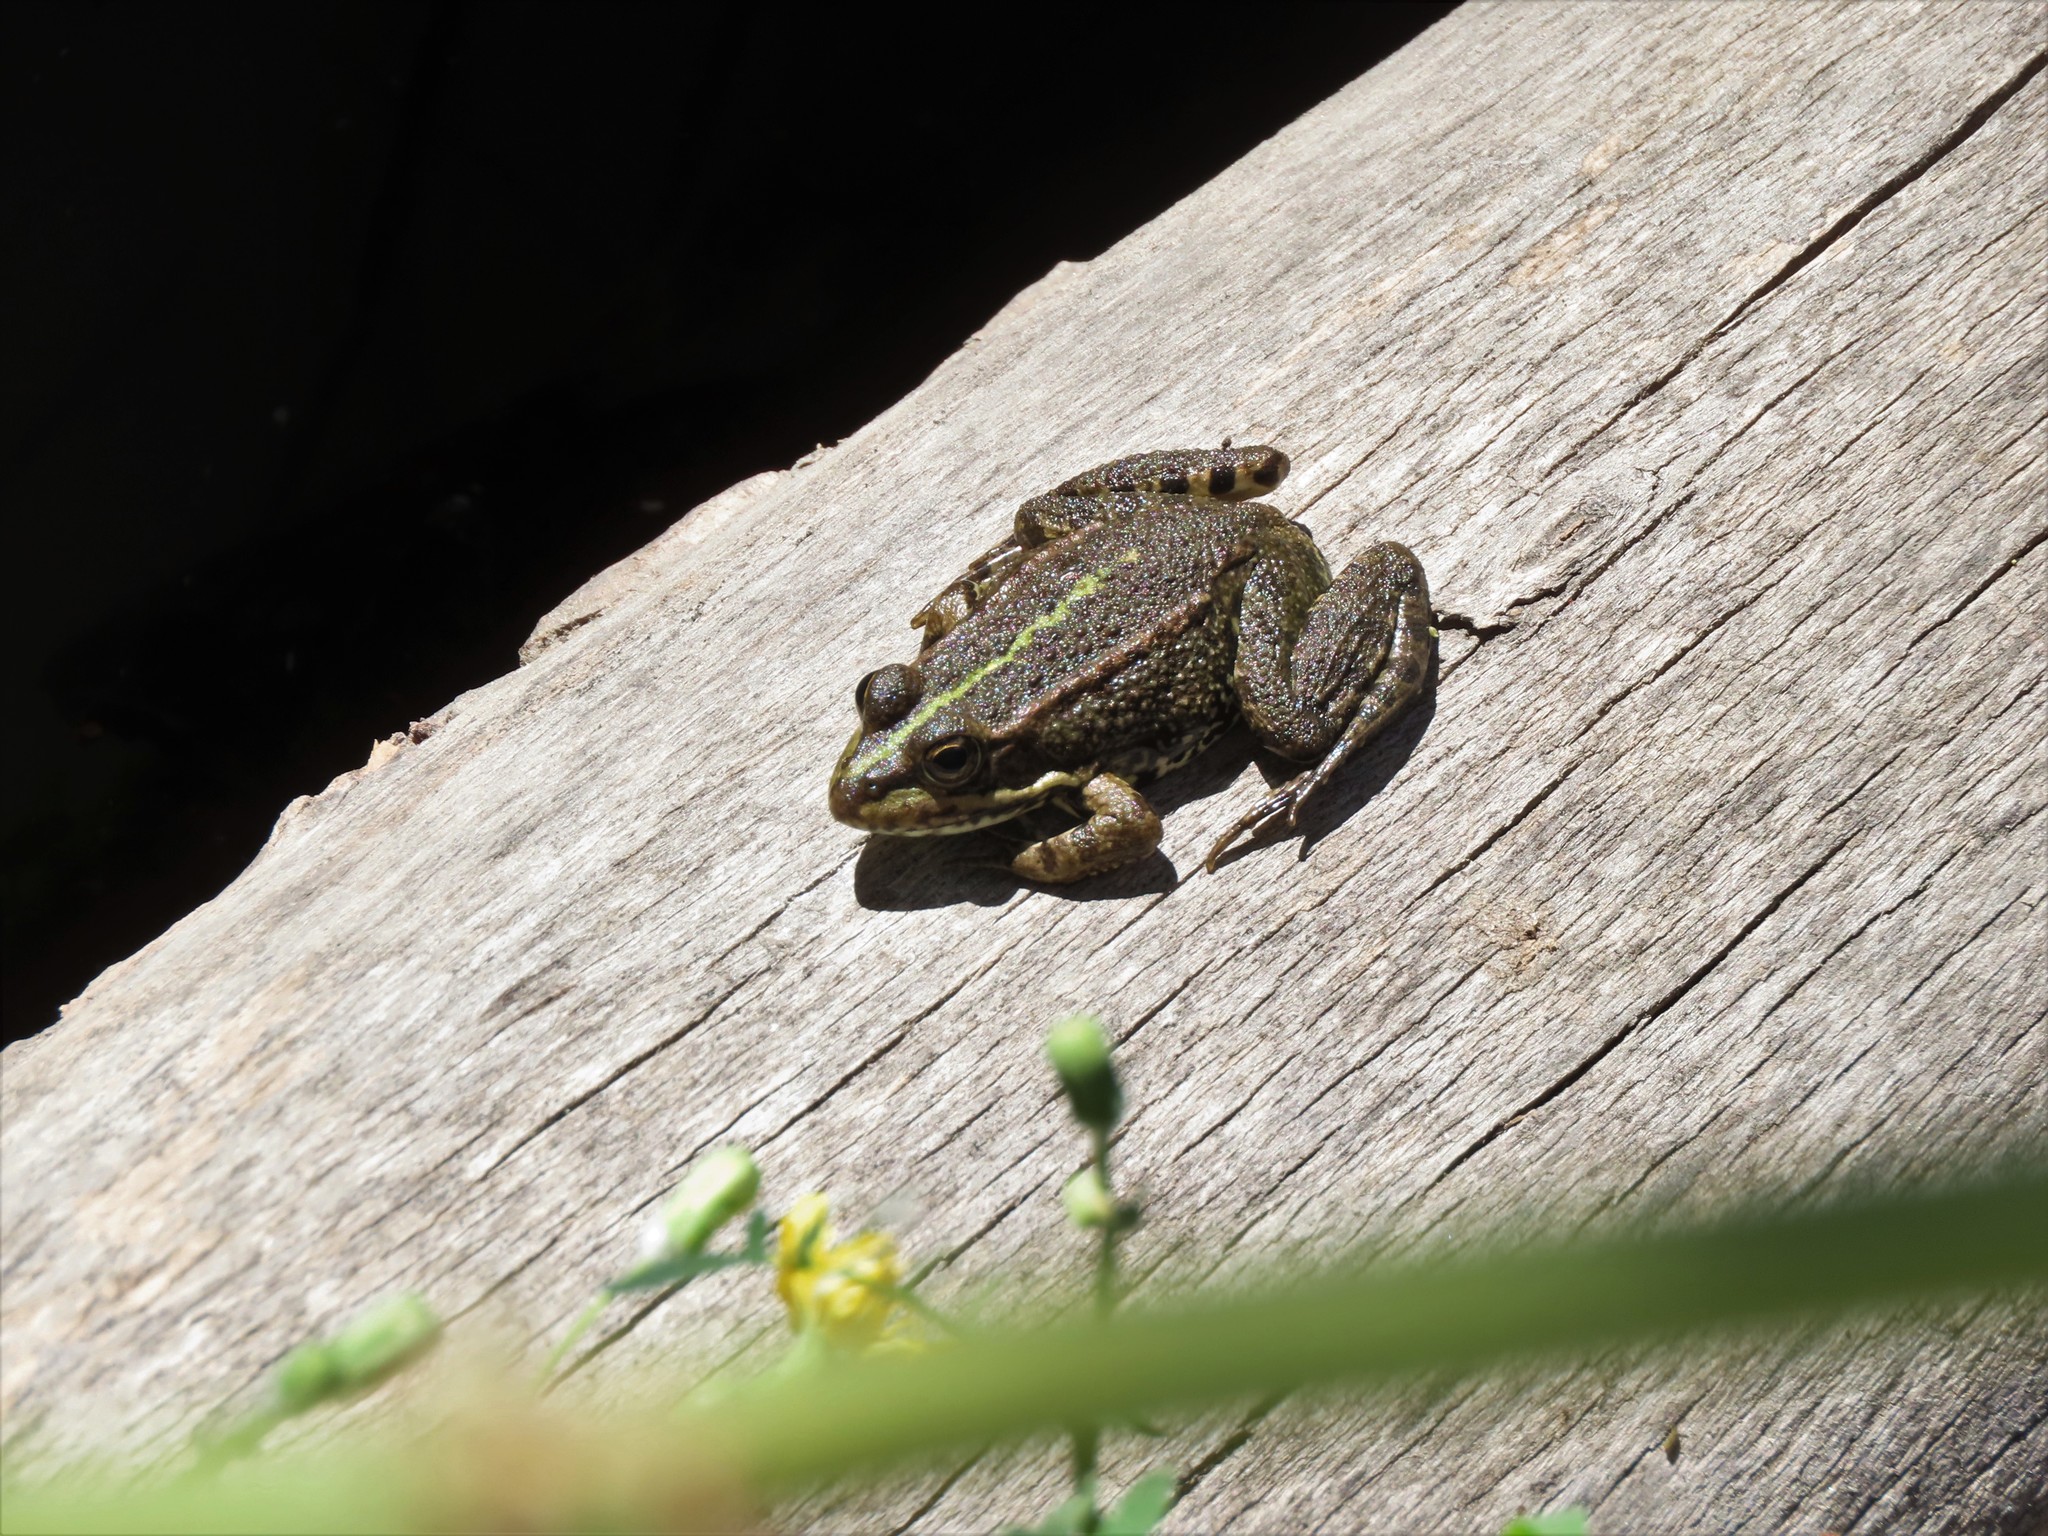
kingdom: Animalia
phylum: Chordata
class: Amphibia
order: Anura
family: Ranidae
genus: Pelophylax
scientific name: Pelophylax perezi
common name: Perez's frog
